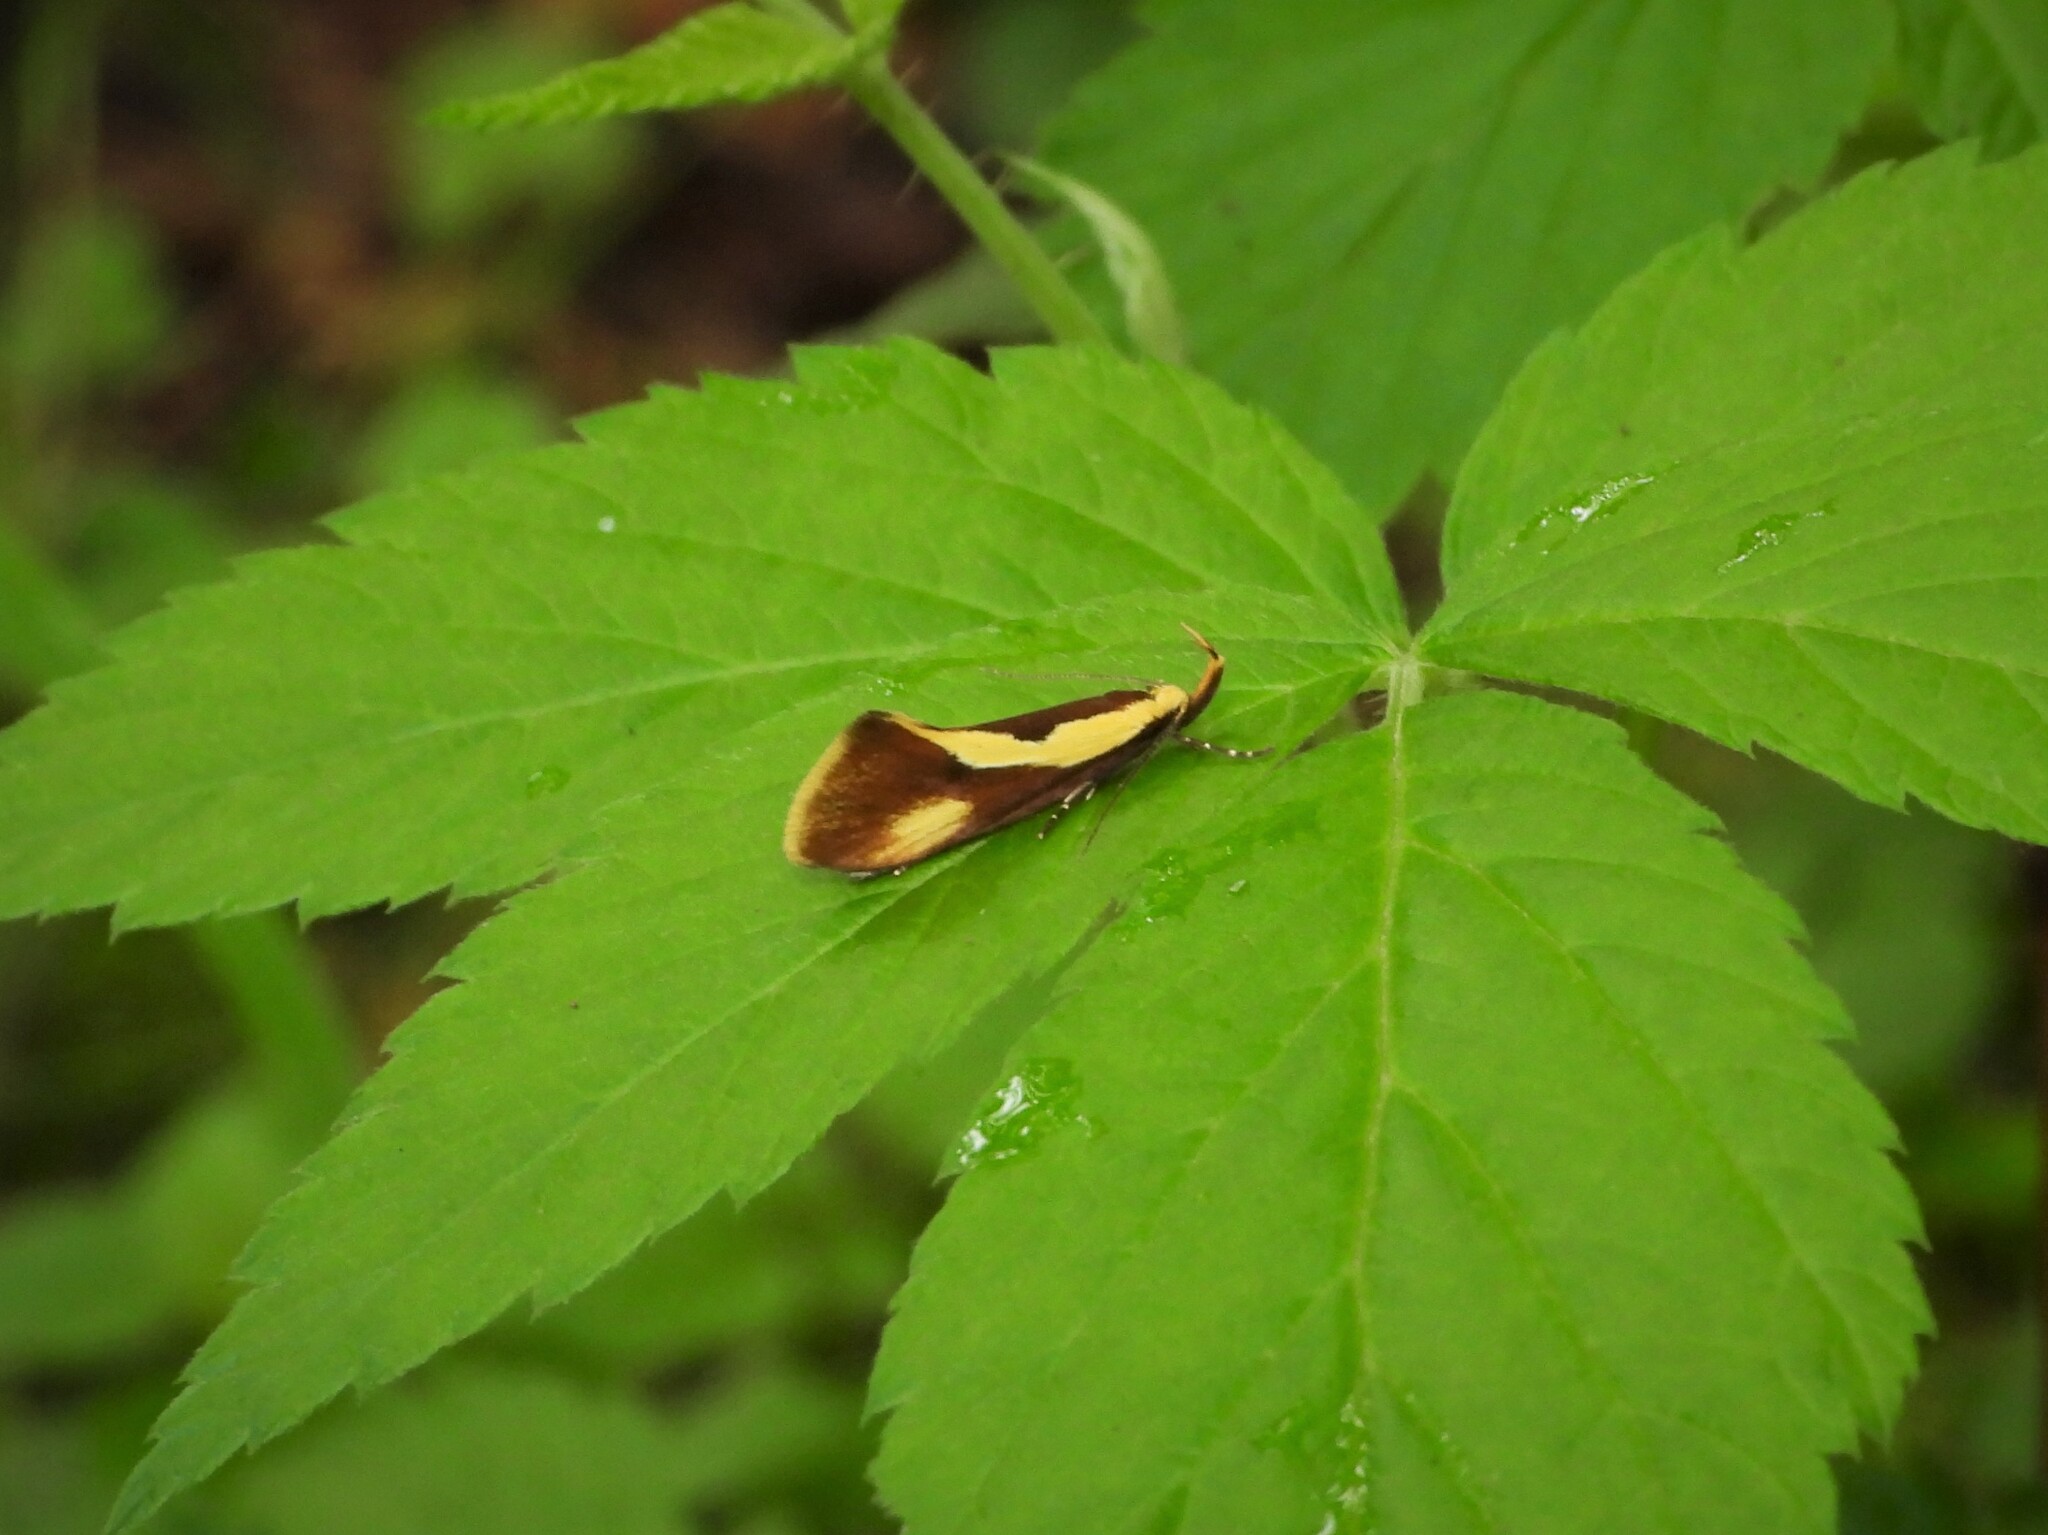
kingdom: Animalia
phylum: Arthropoda
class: Insecta
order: Lepidoptera
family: Oecophoridae
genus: Harpella
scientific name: Harpella forficella
